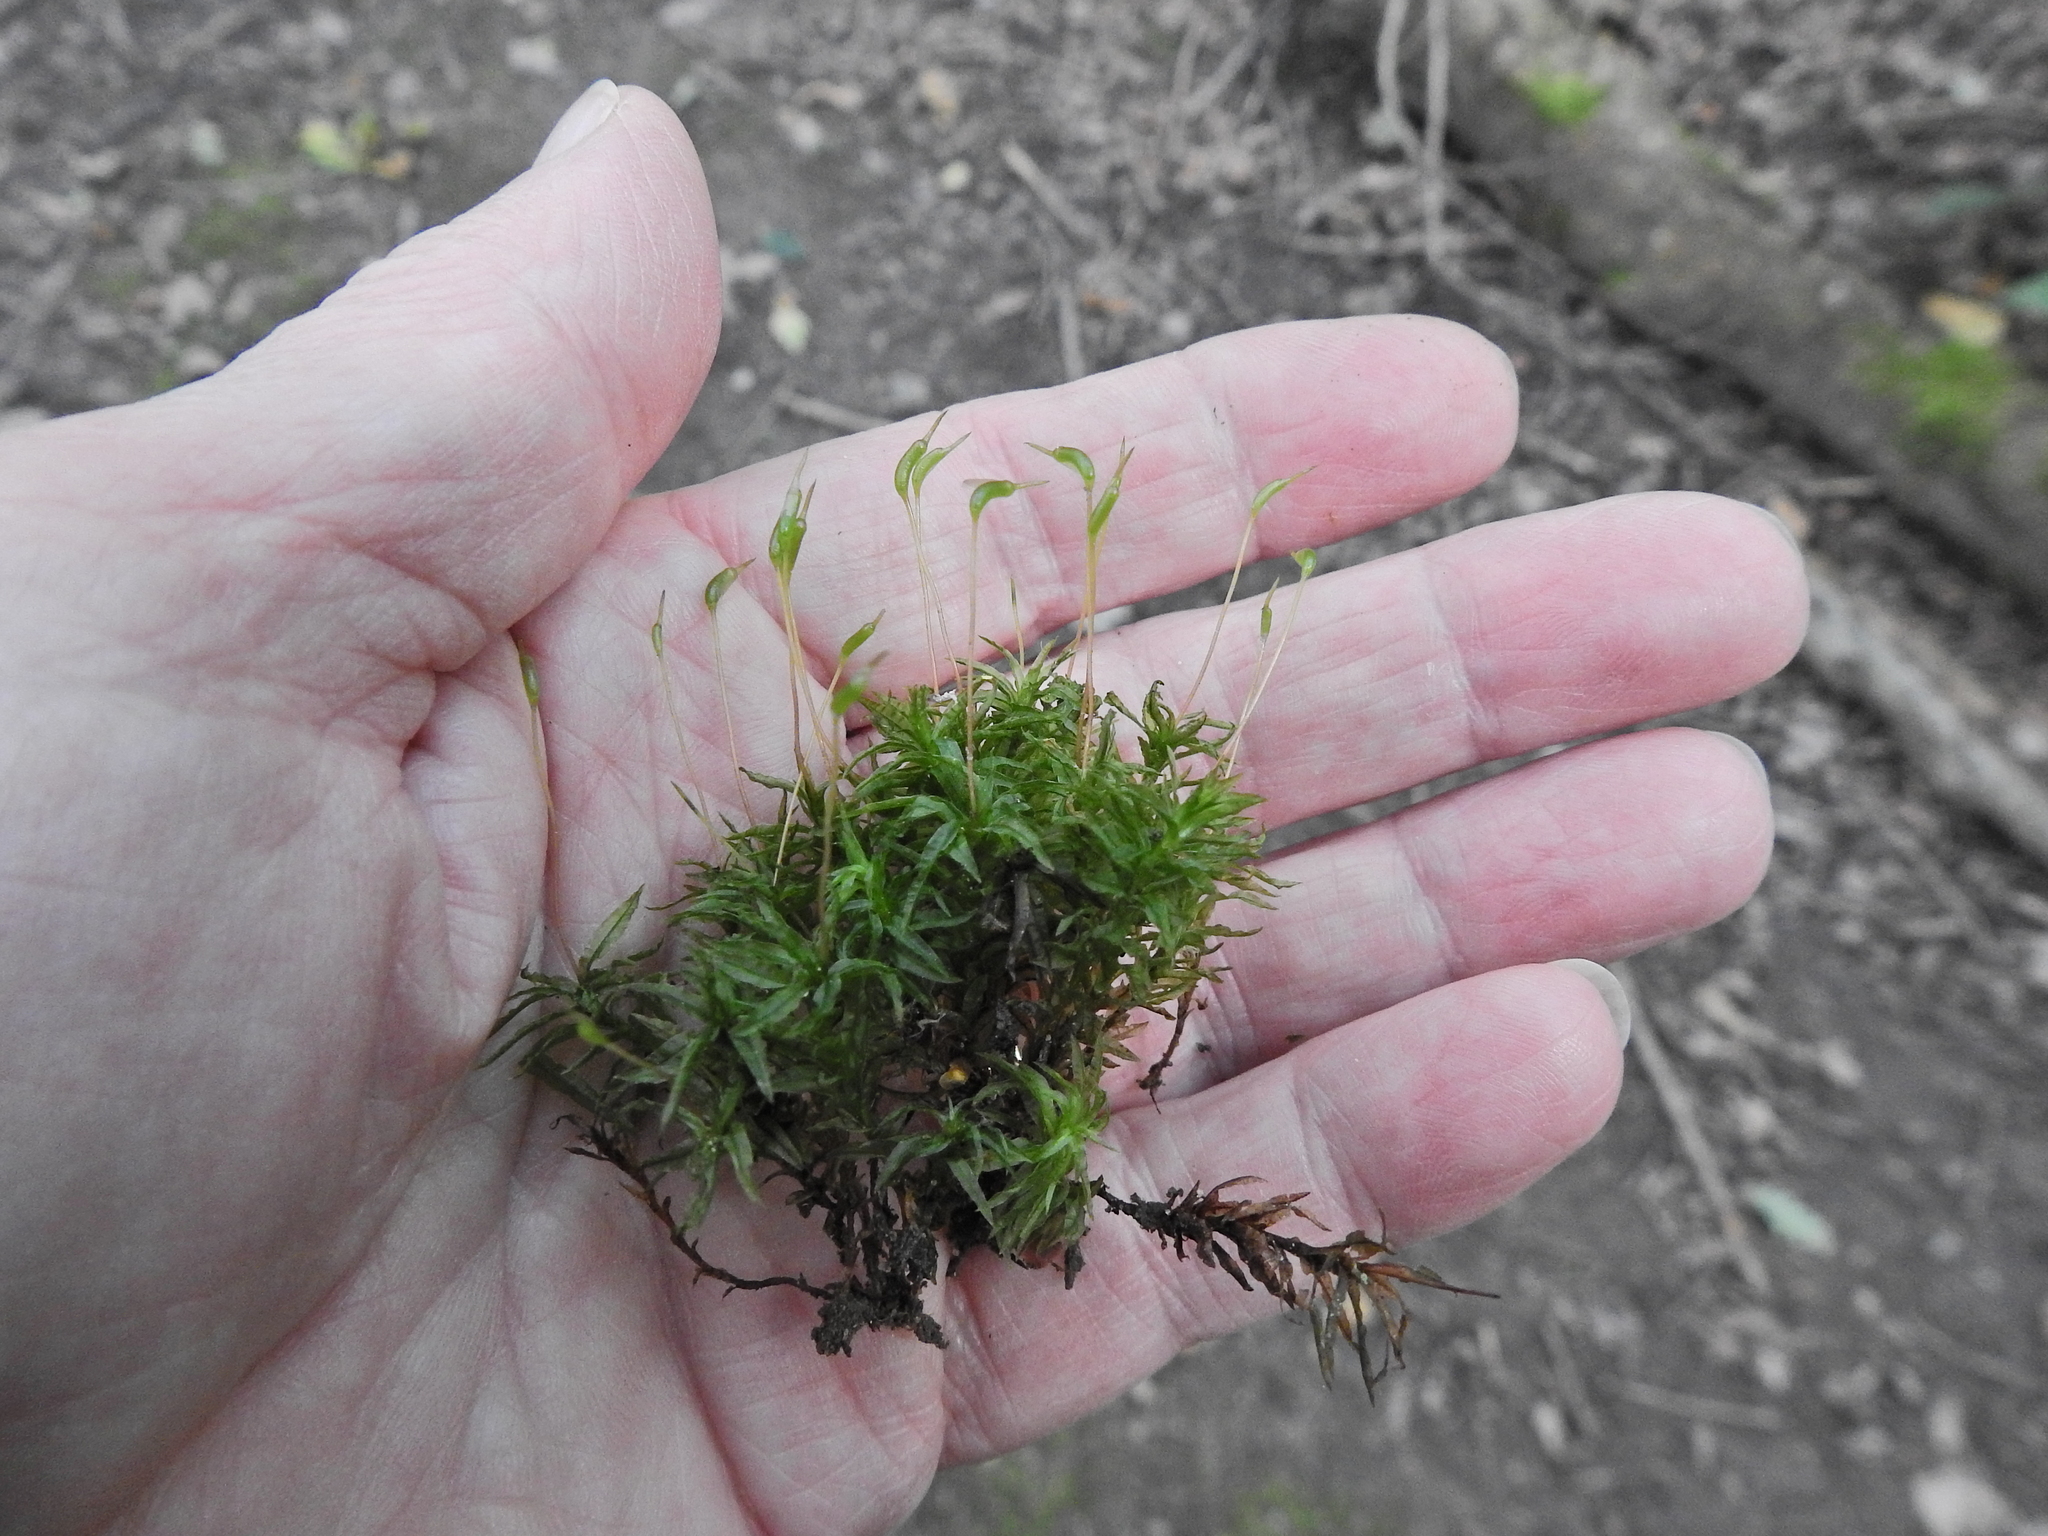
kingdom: Plantae
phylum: Bryophyta
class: Polytrichopsida
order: Polytrichales
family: Polytrichaceae
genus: Atrichum
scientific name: Atrichum undulatum
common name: Common smoothcap
